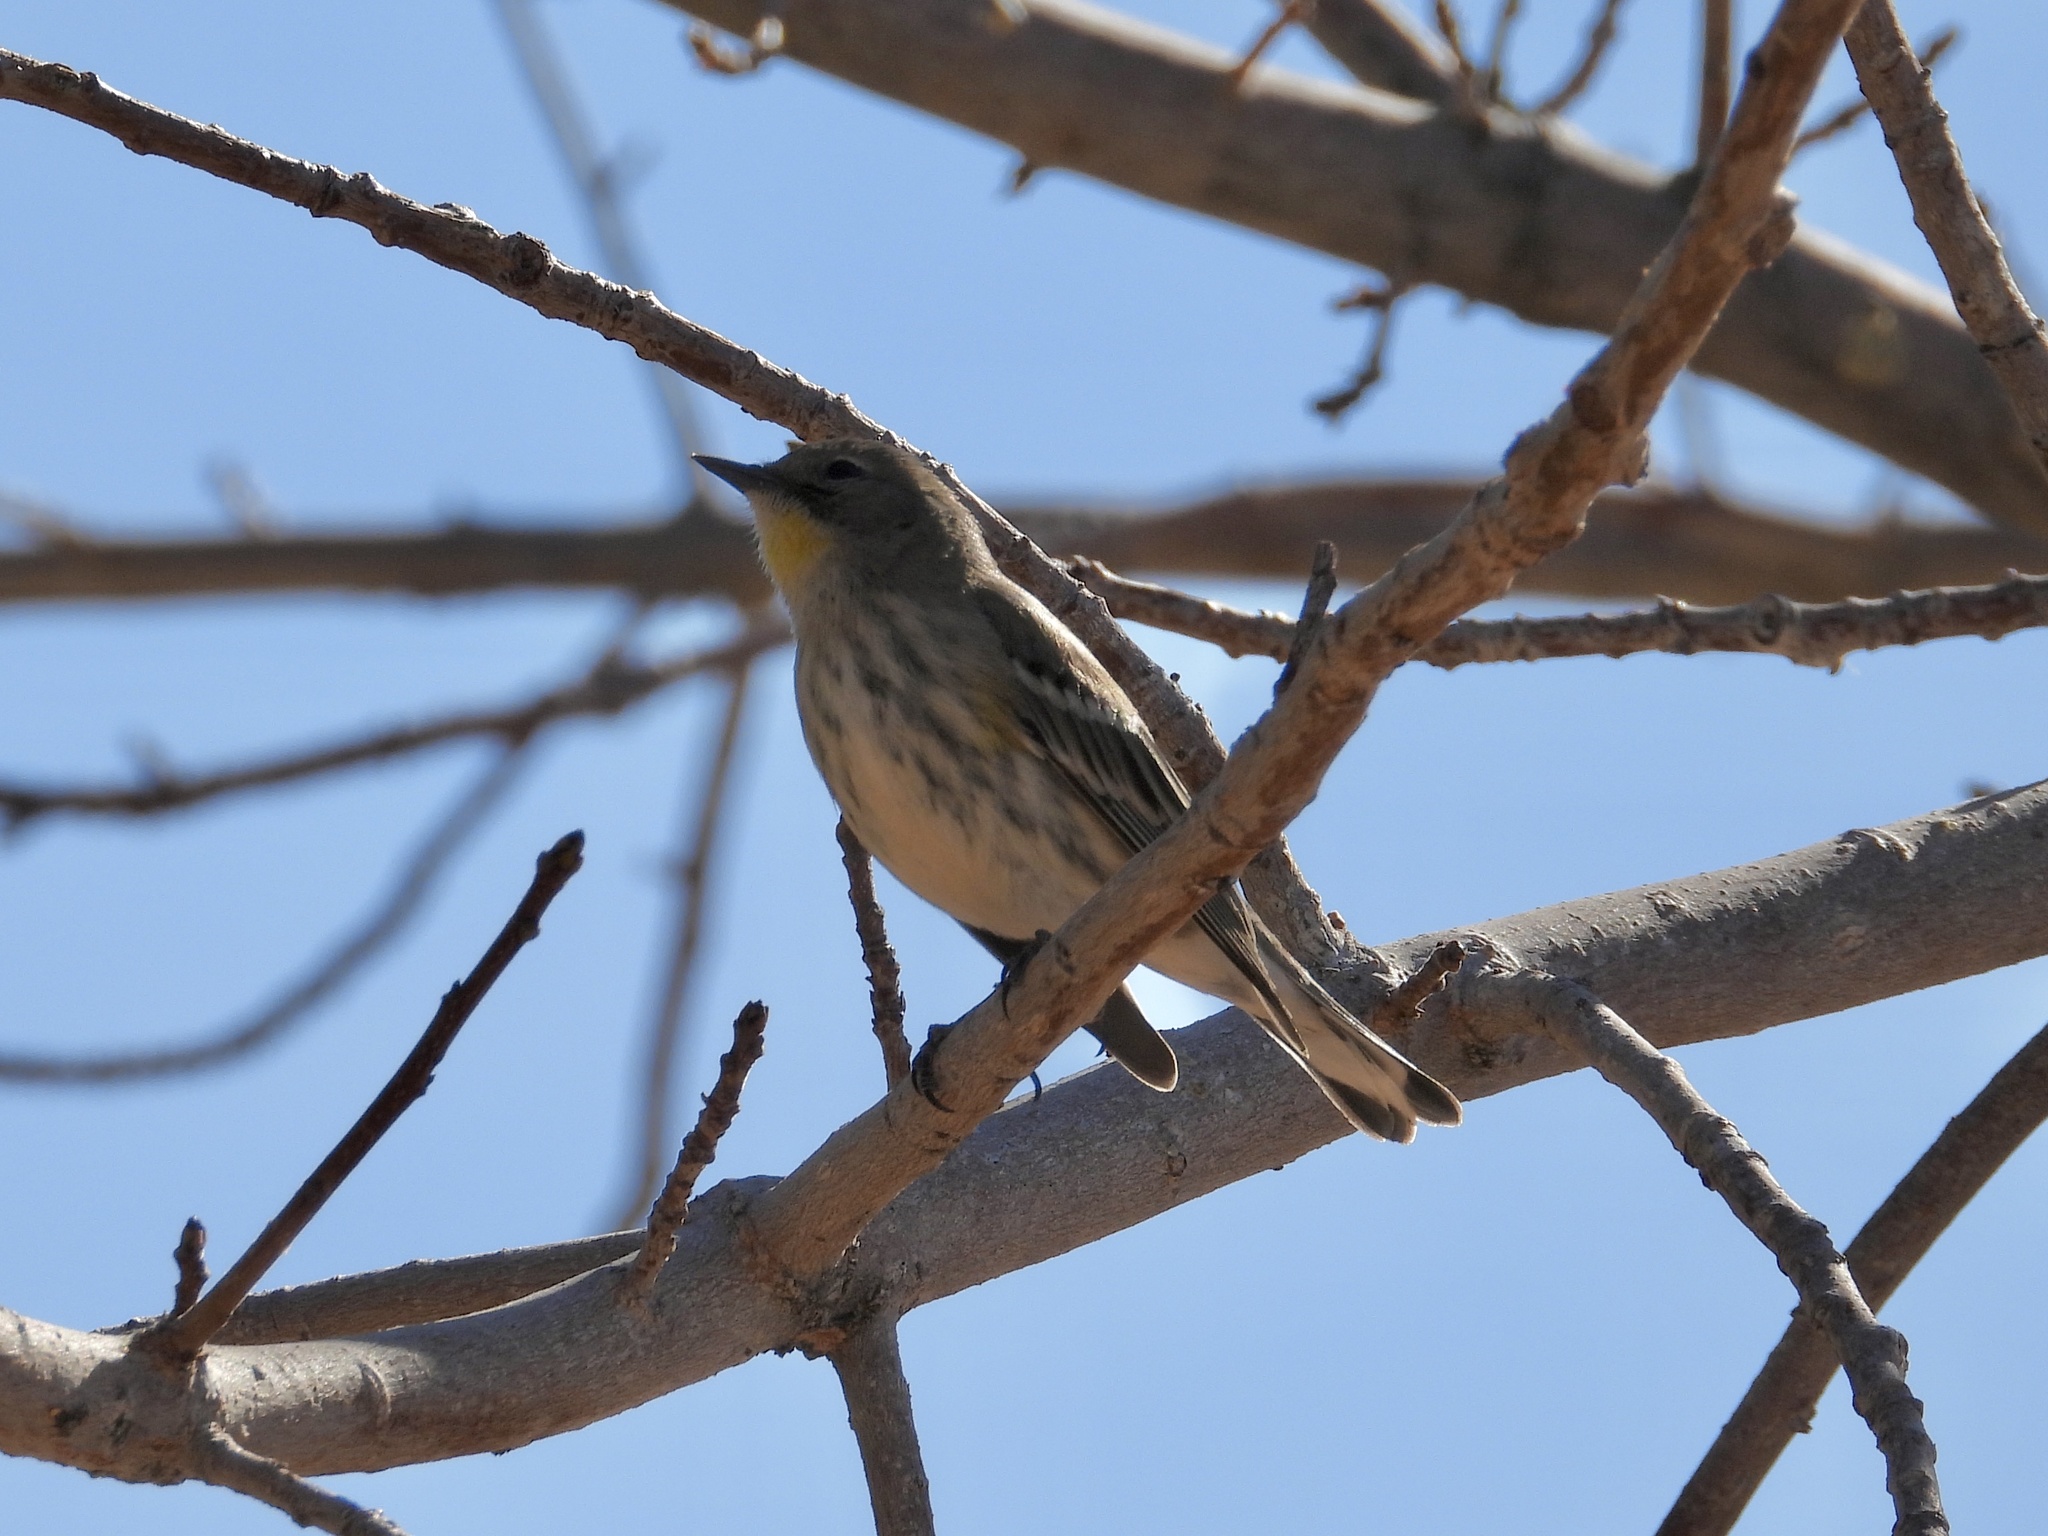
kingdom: Animalia
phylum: Chordata
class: Aves
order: Passeriformes
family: Parulidae
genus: Setophaga
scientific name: Setophaga auduboni
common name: Audubon's warbler
